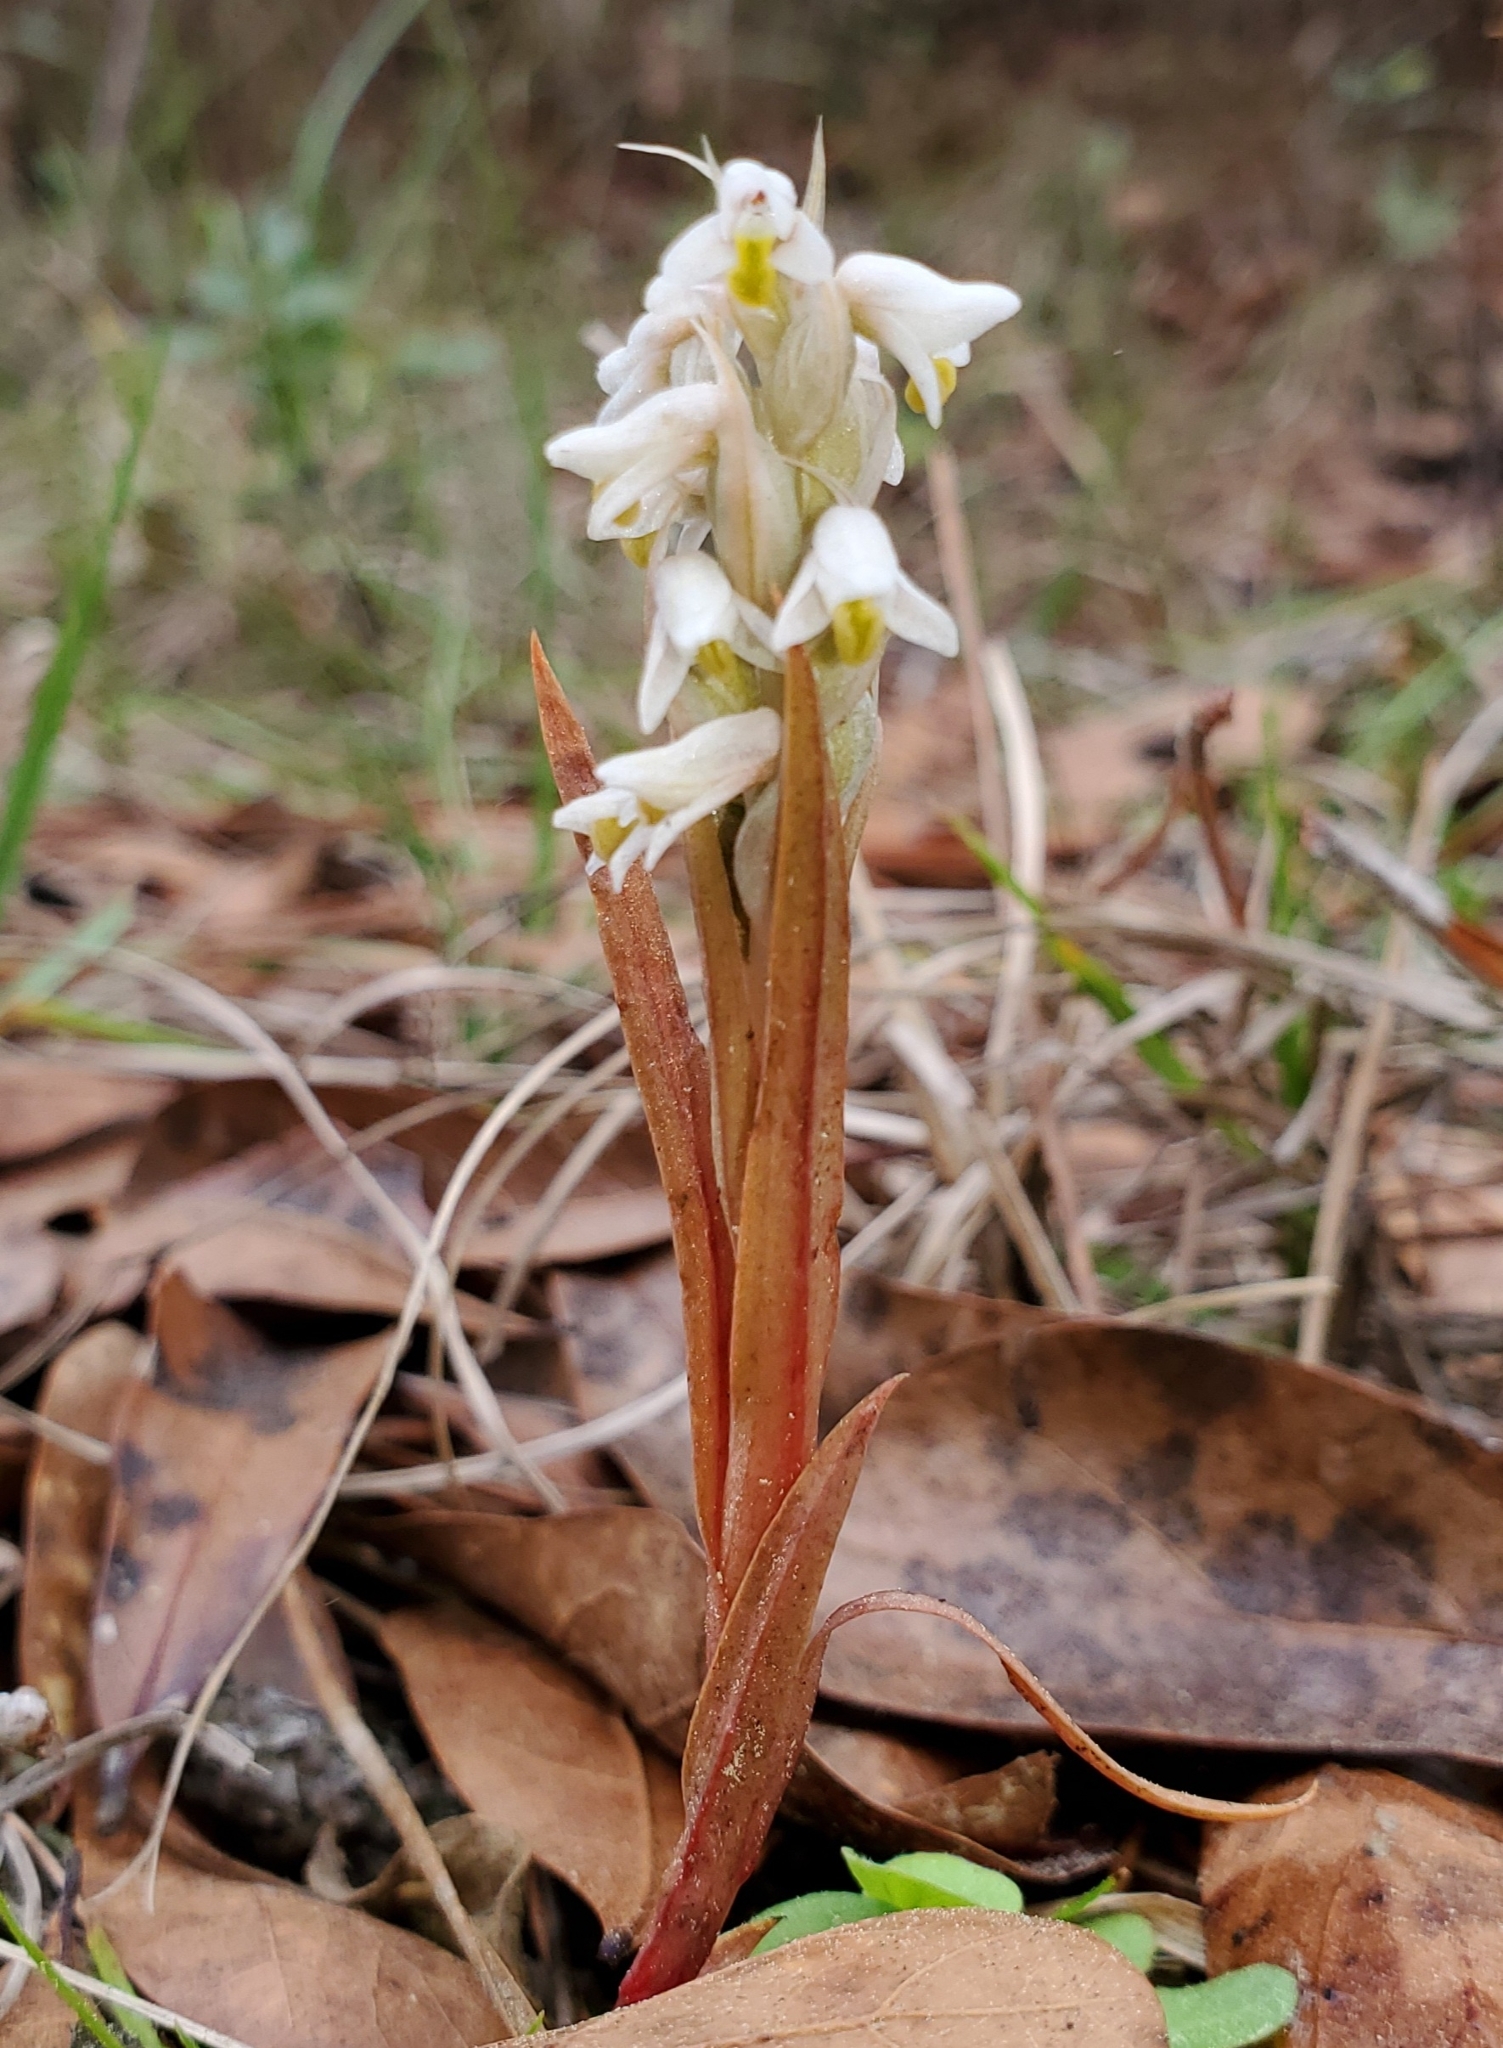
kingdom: Plantae
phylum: Tracheophyta
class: Liliopsida
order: Asparagales
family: Orchidaceae
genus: Zeuxine
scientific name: Zeuxine strateumatica
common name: Soldier's orchid
